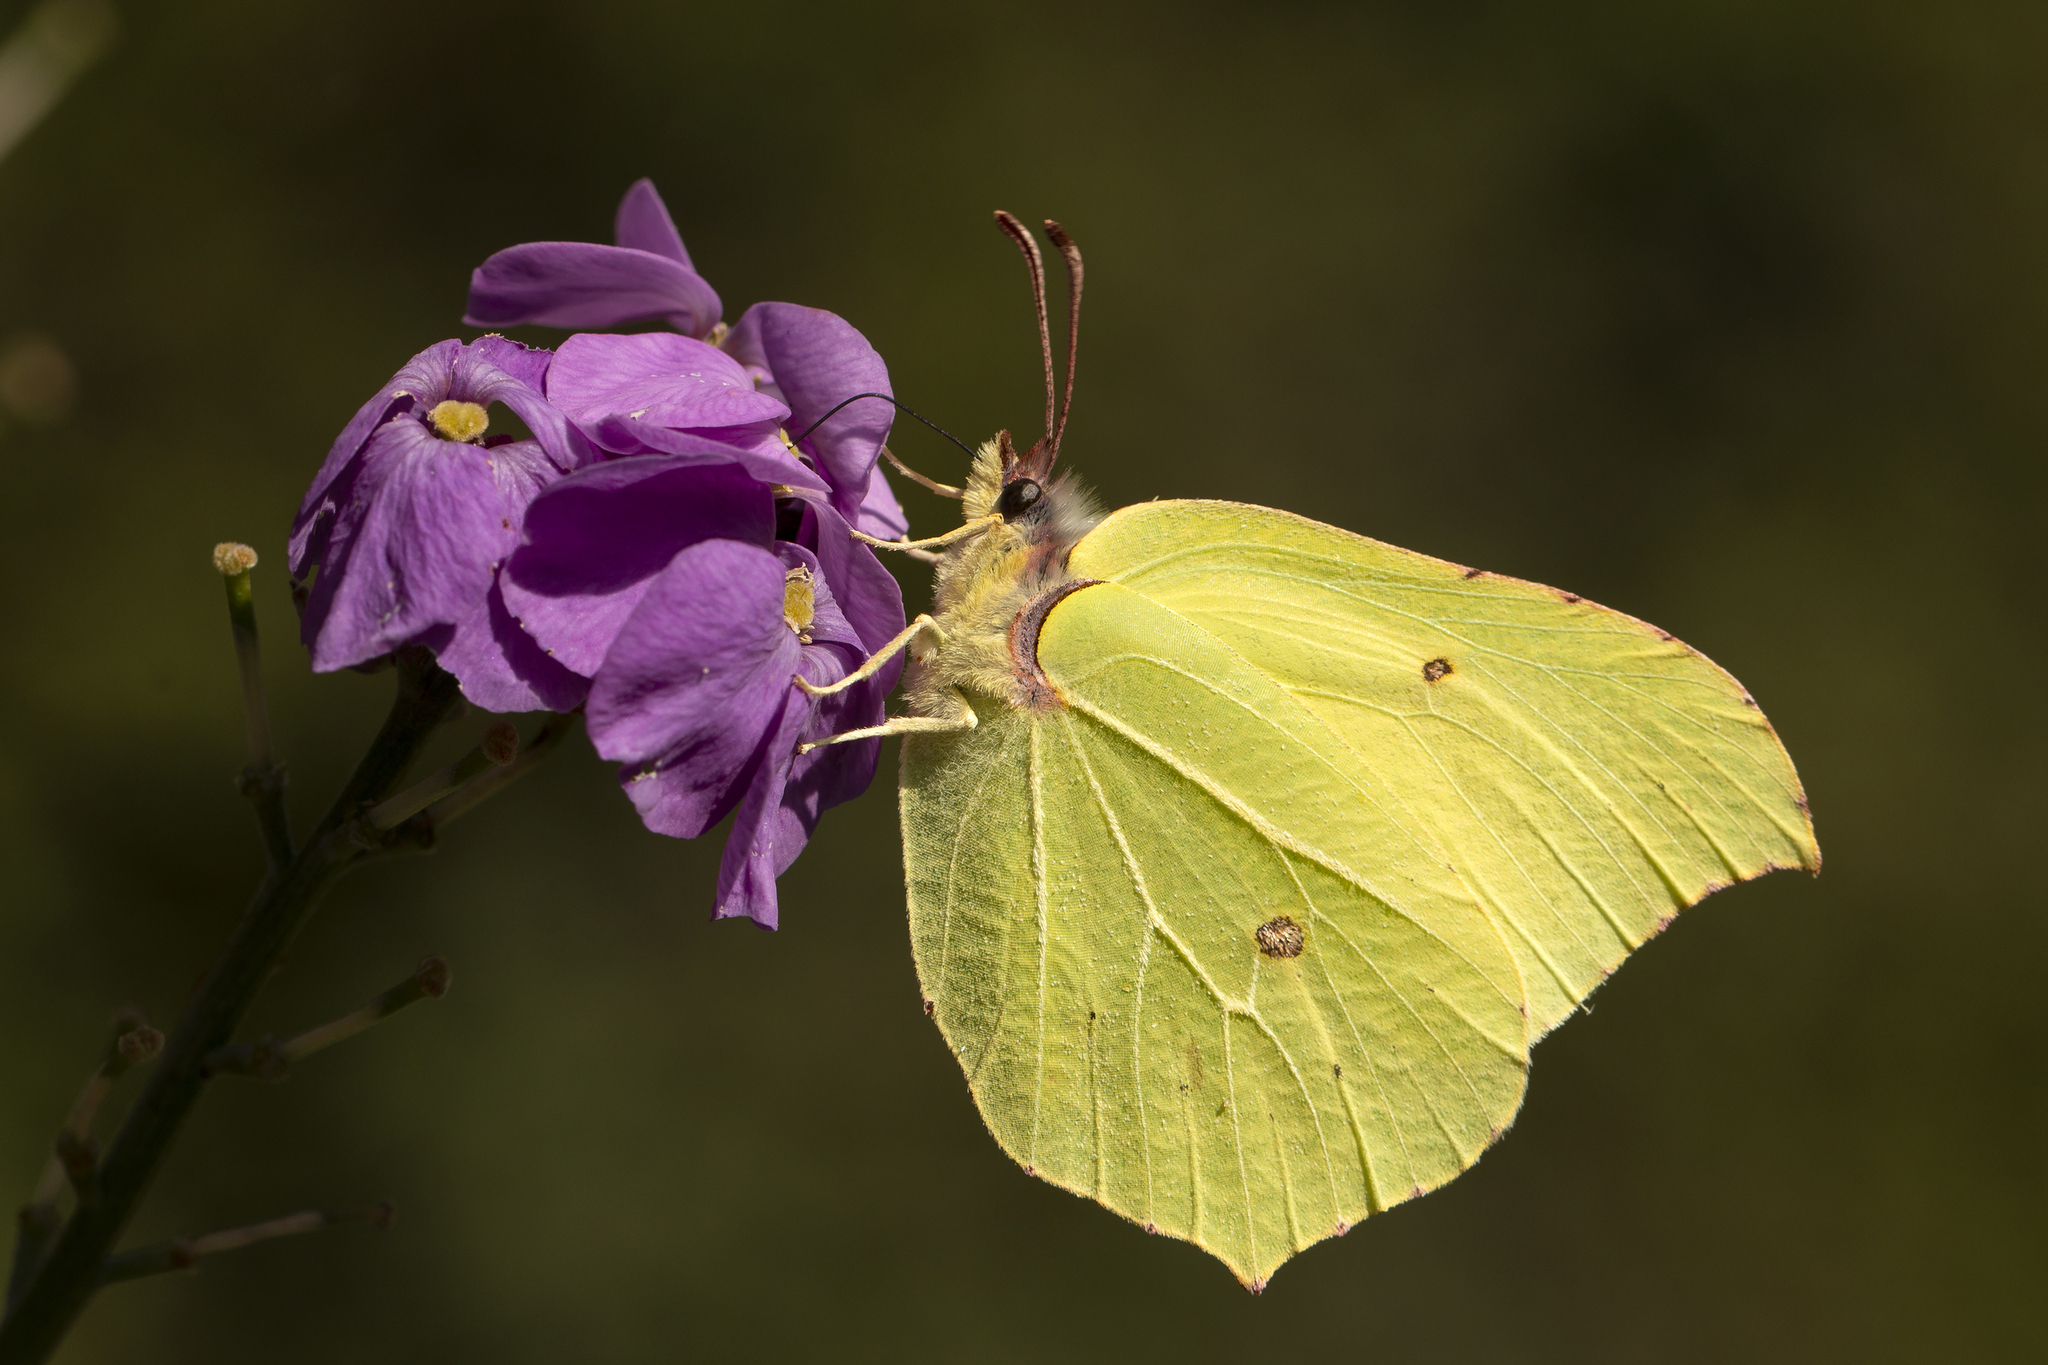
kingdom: Animalia
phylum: Arthropoda
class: Insecta
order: Lepidoptera
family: Pieridae
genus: Gonepteryx
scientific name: Gonepteryx rhamni
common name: Brimstone
